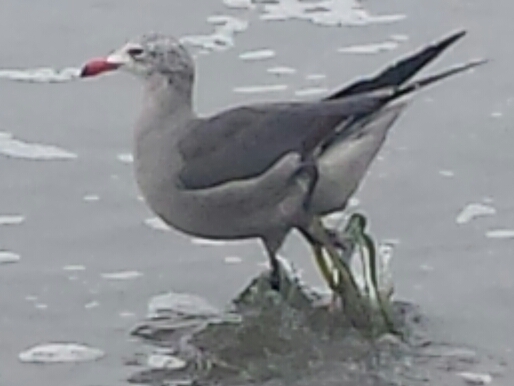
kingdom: Animalia
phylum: Chordata
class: Aves
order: Charadriiformes
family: Laridae
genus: Larus
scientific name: Larus heermanni
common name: Heermann's gull
